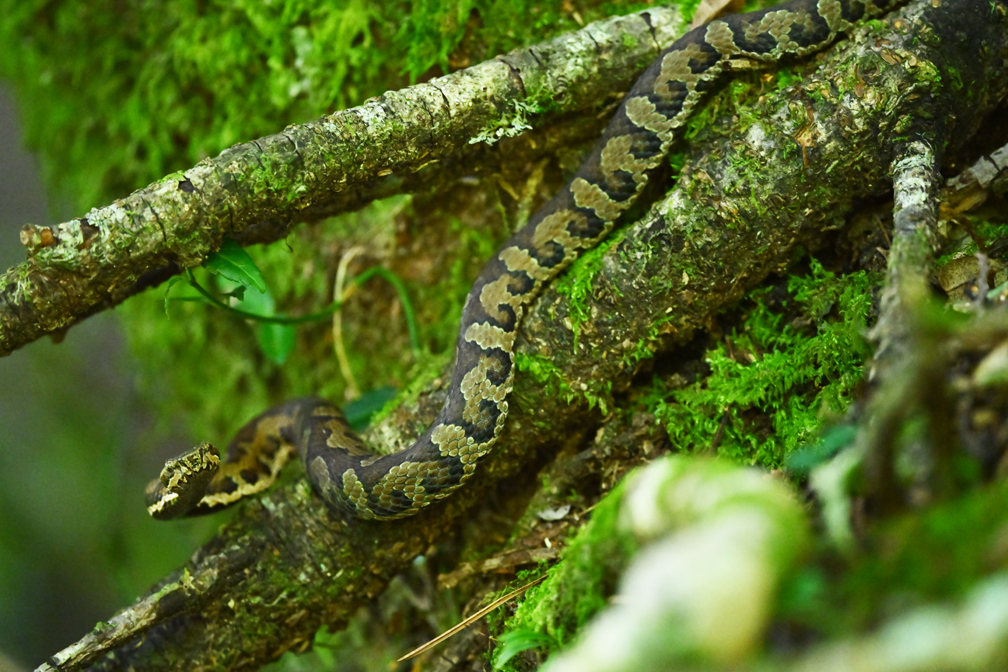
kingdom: Animalia
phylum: Chordata
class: Squamata
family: Viperidae
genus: Trimeresurus
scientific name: Trimeresurus gracilis
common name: Taiwan pit viper
